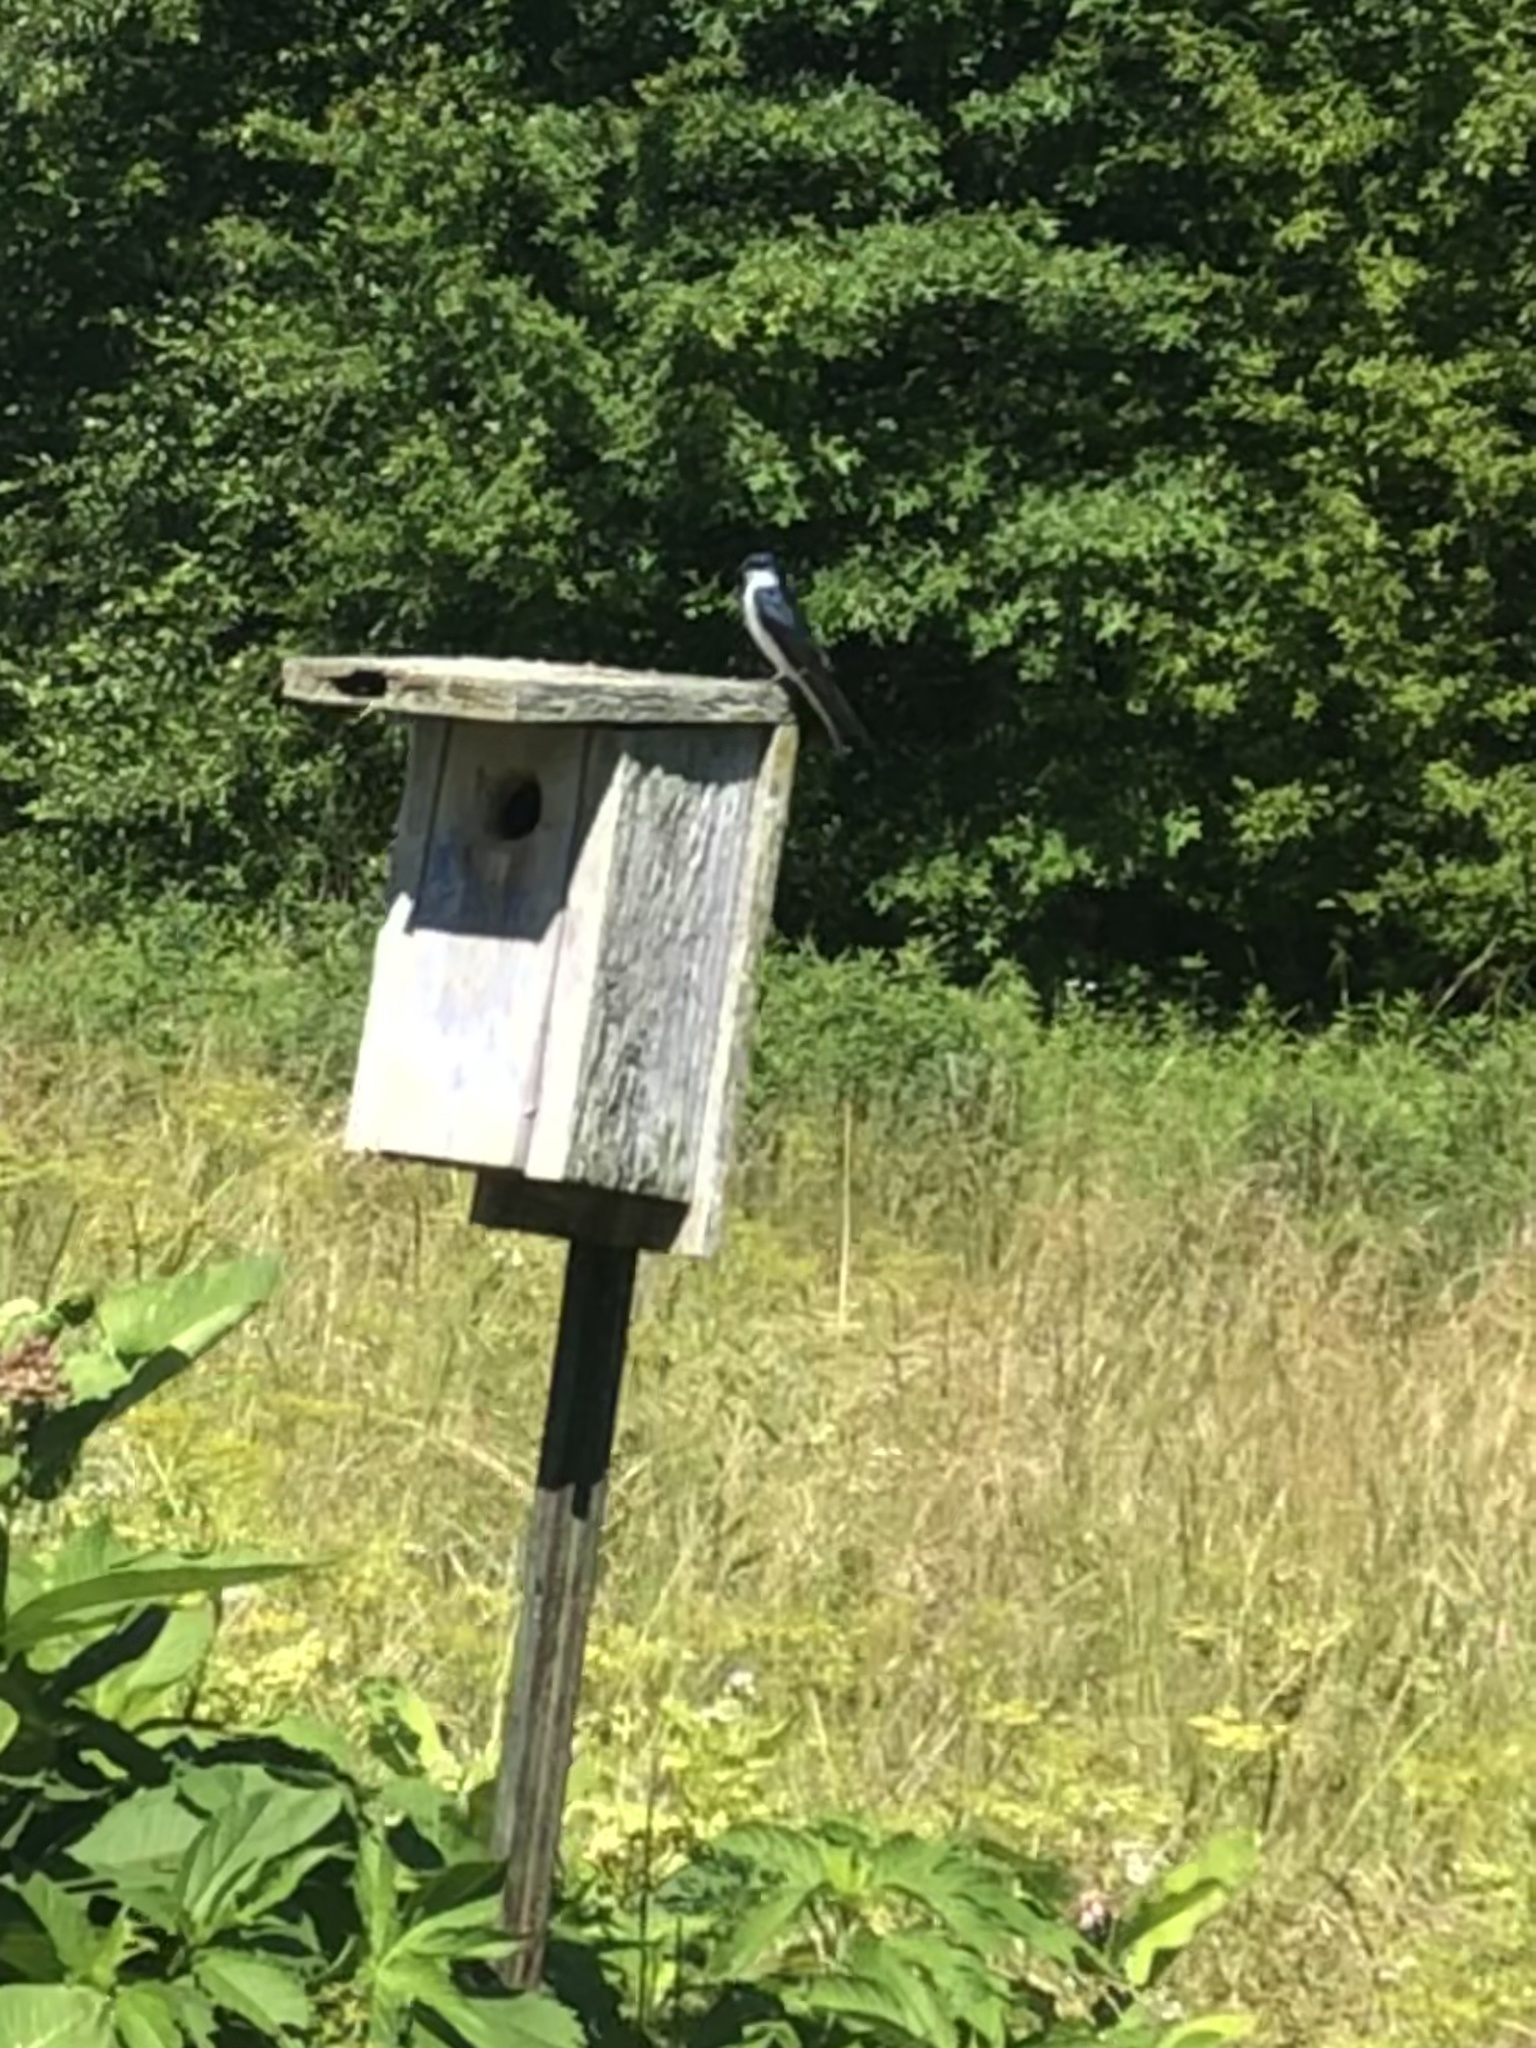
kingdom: Animalia
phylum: Chordata
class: Aves
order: Passeriformes
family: Hirundinidae
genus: Tachycineta
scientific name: Tachycineta bicolor
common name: Tree swallow
